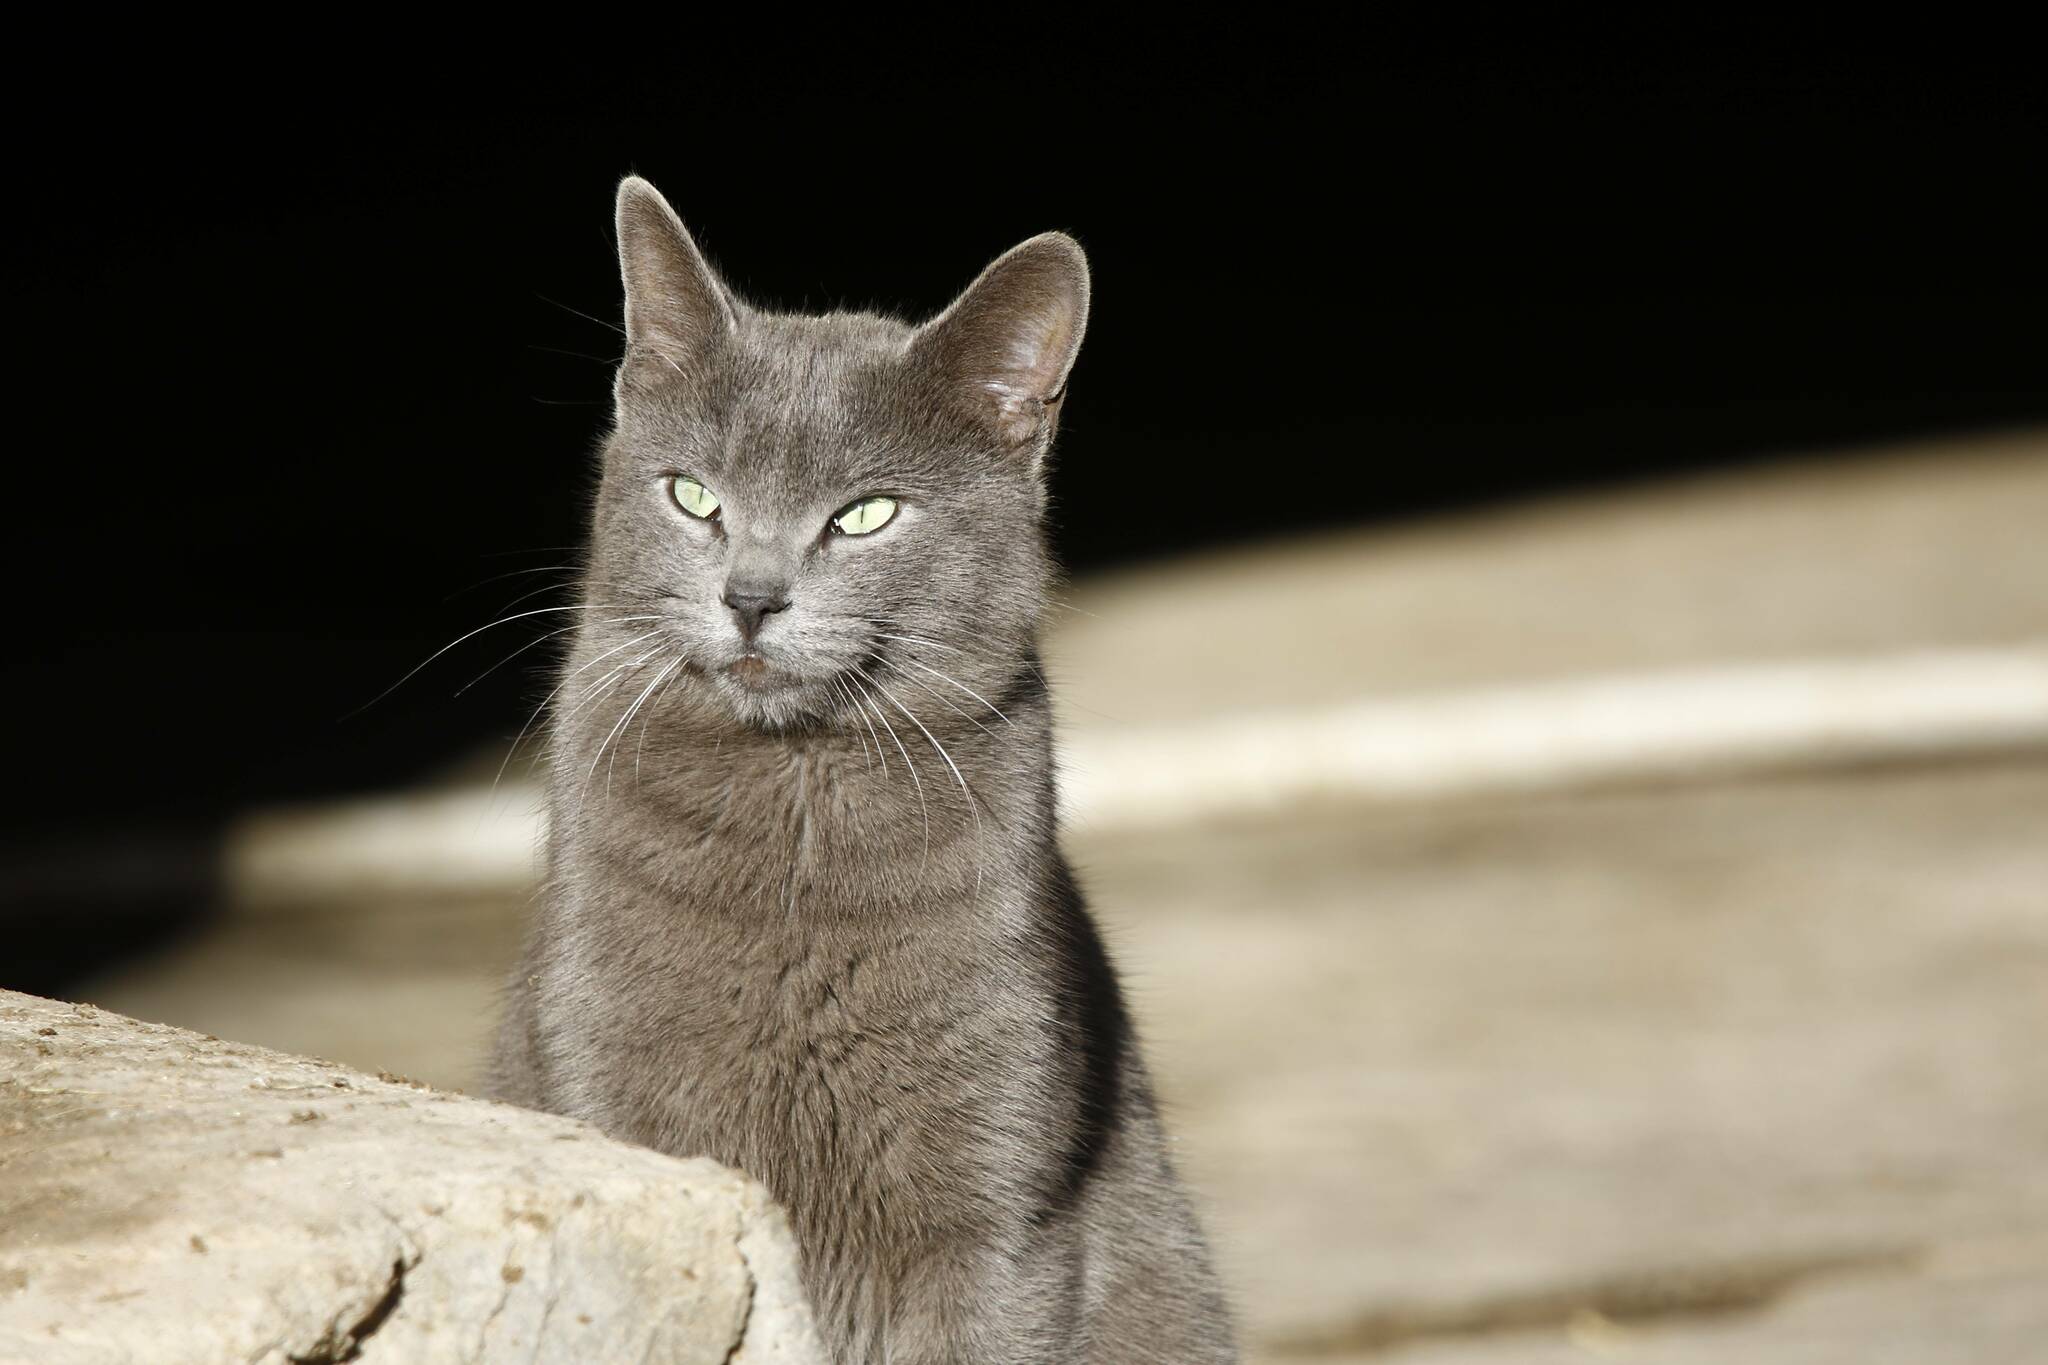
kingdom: Animalia
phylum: Chordata
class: Mammalia
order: Carnivora
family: Felidae
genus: Felis
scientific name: Felis catus
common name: Domestic cat
